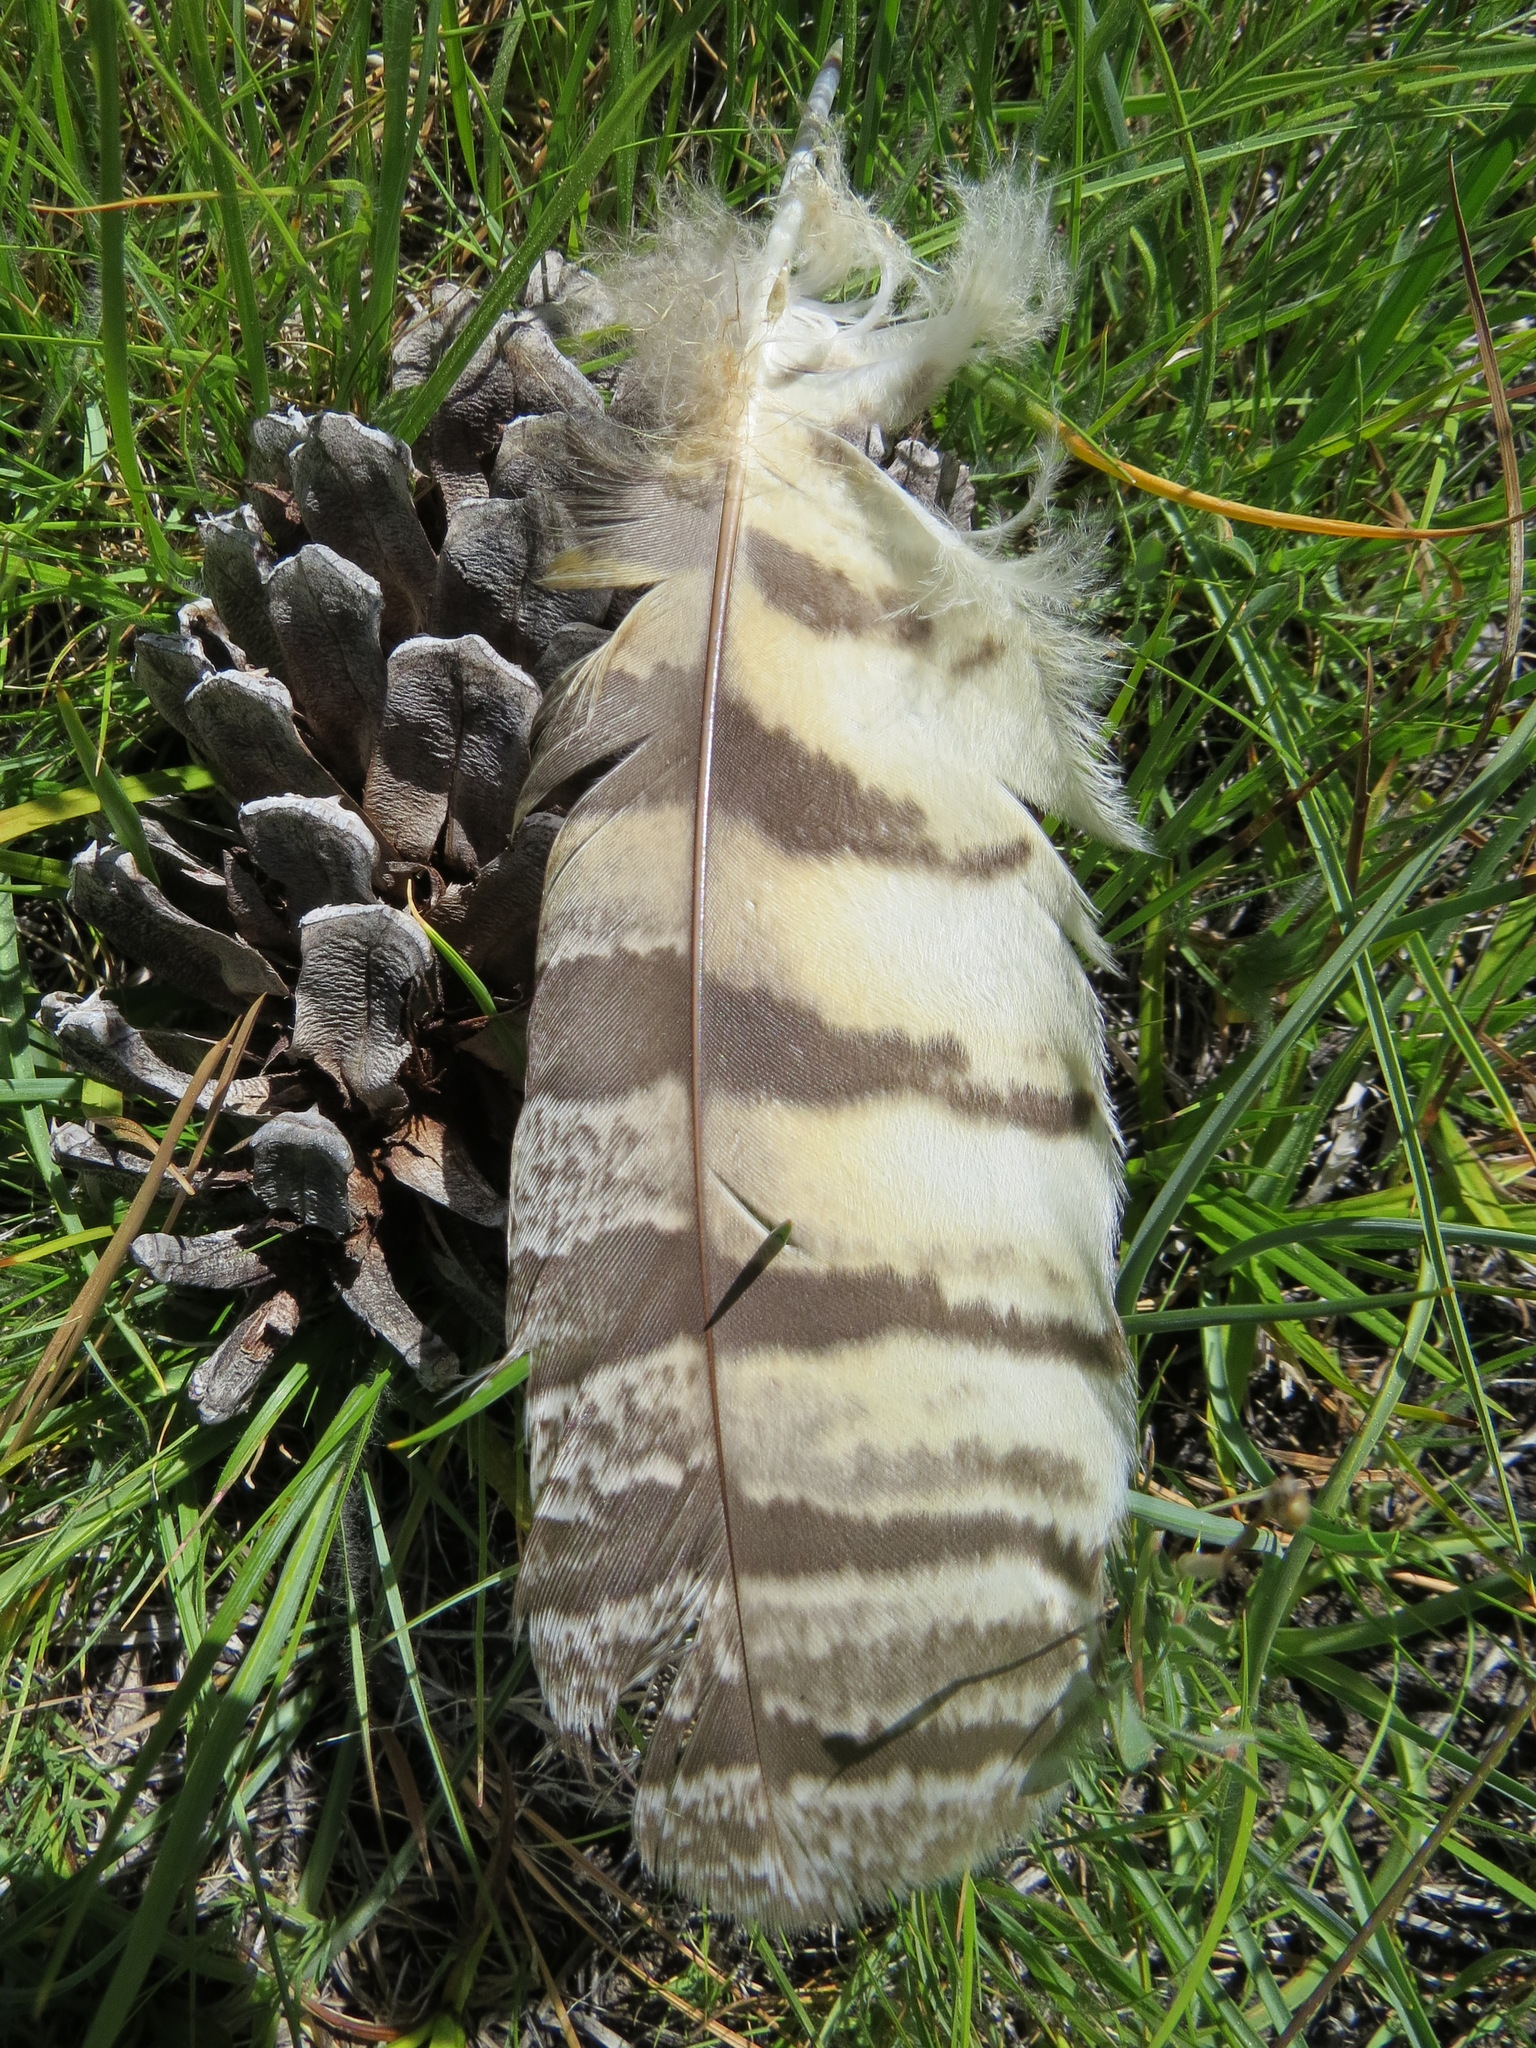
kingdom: Animalia
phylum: Chordata
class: Aves
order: Strigiformes
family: Strigidae
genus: Bubo
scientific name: Bubo virginianus
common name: Great horned owl
